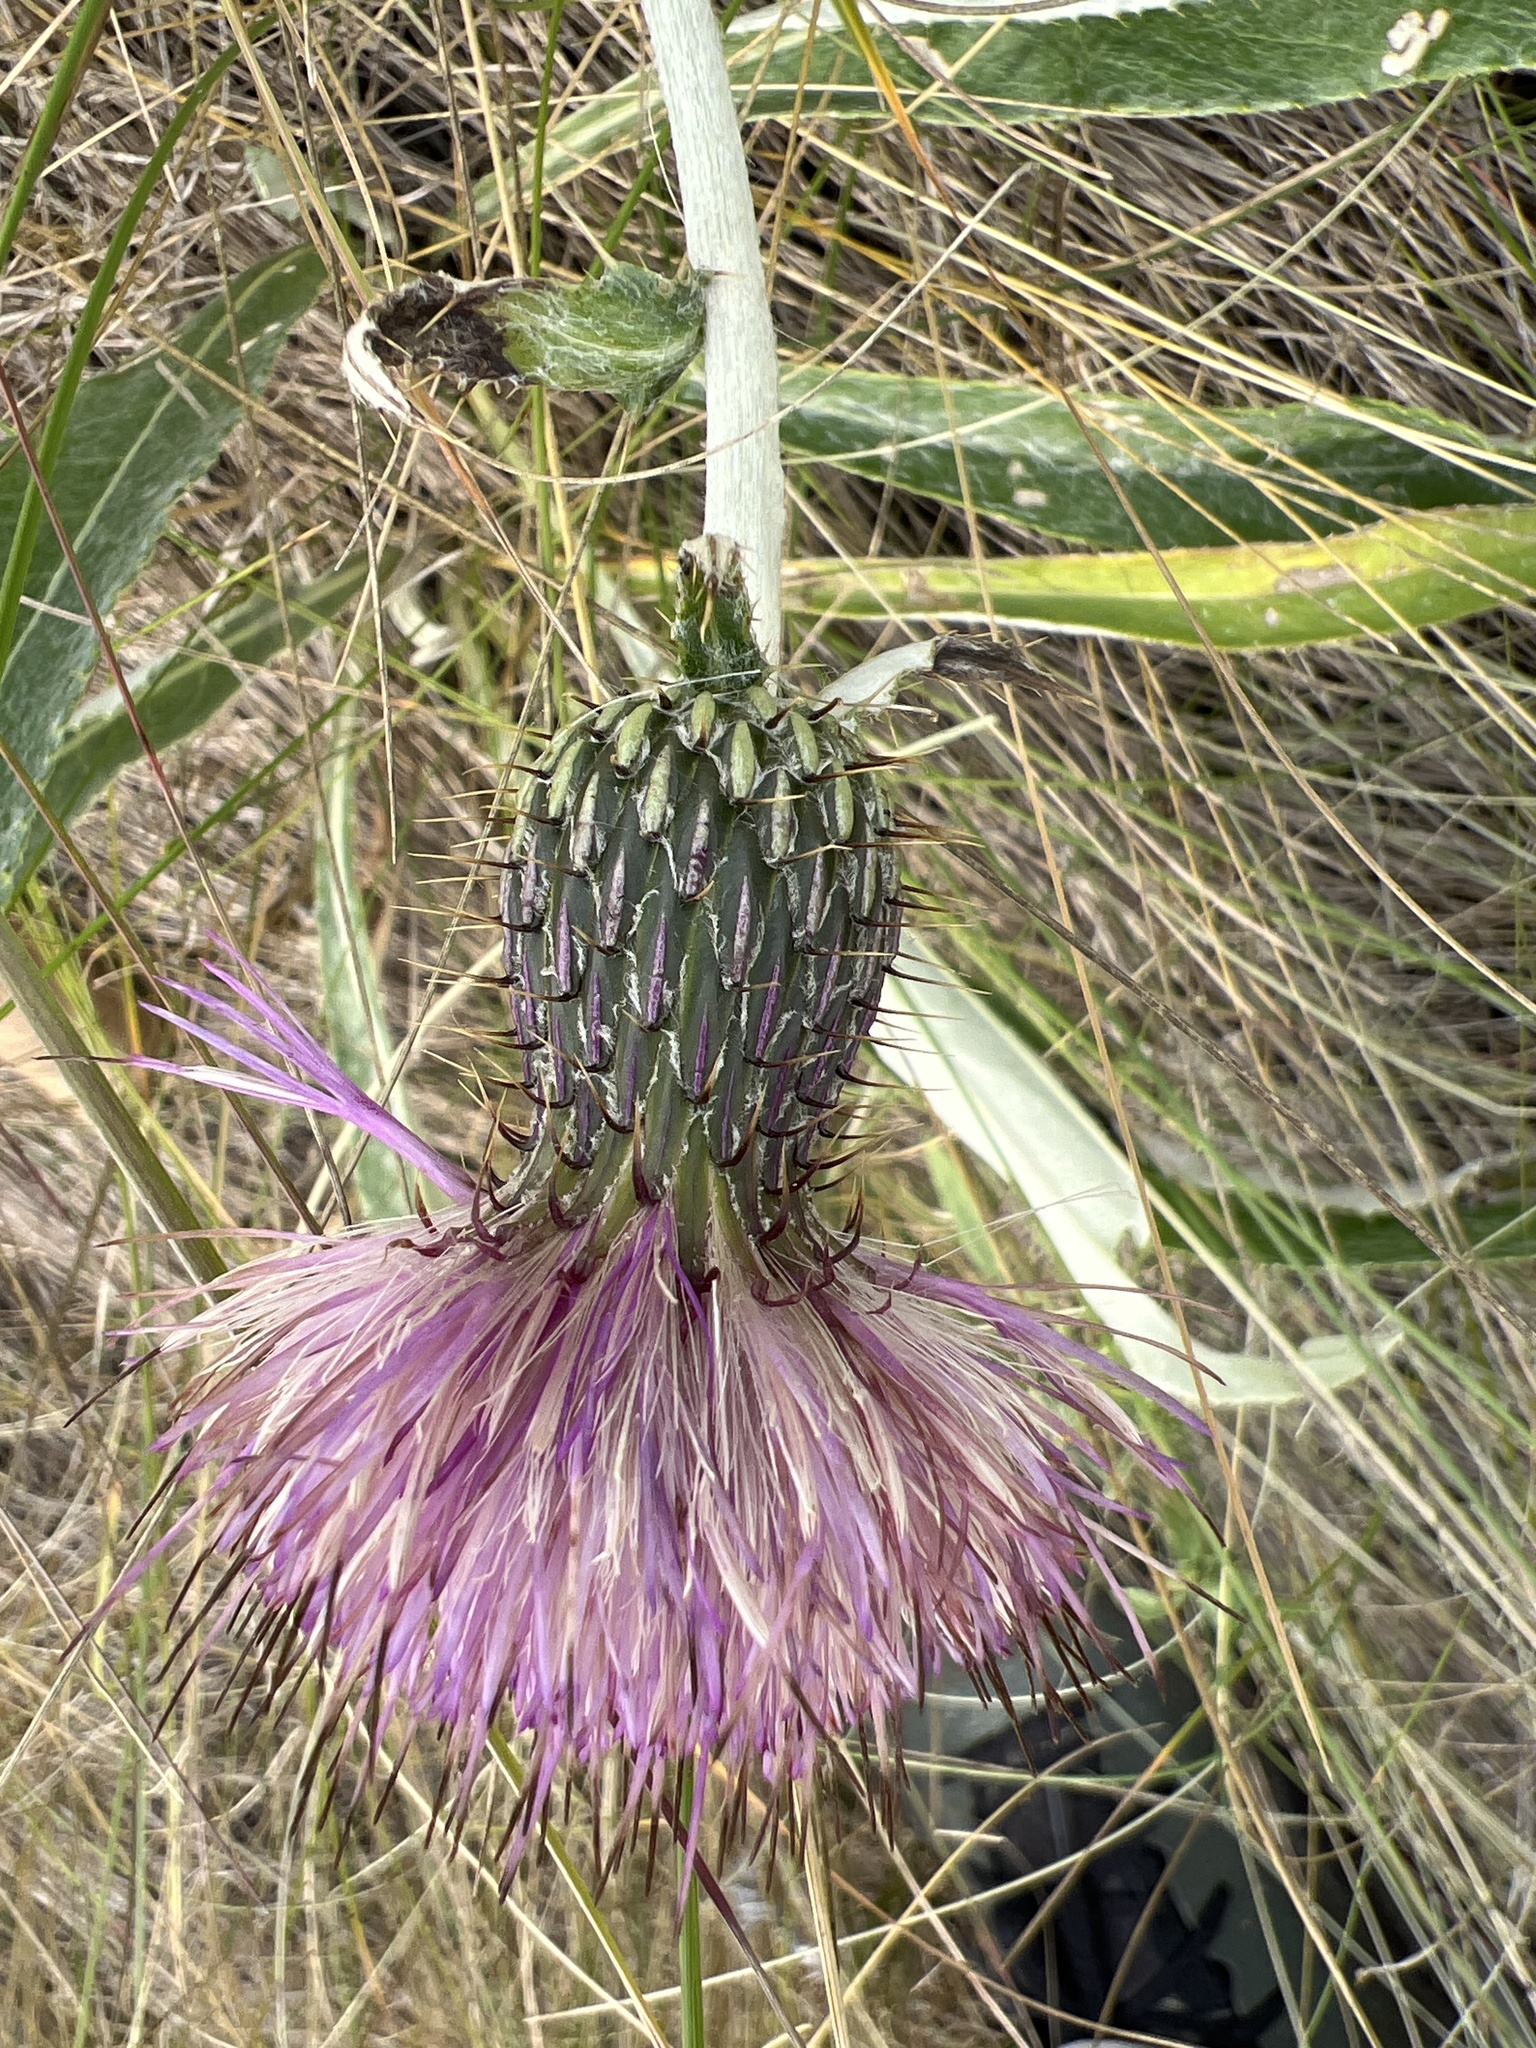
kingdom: Plantae
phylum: Tracheophyta
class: Magnoliopsida
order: Asterales
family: Asteraceae
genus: Cirsium
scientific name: Cirsium flodmanii
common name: Flodman's thistle
